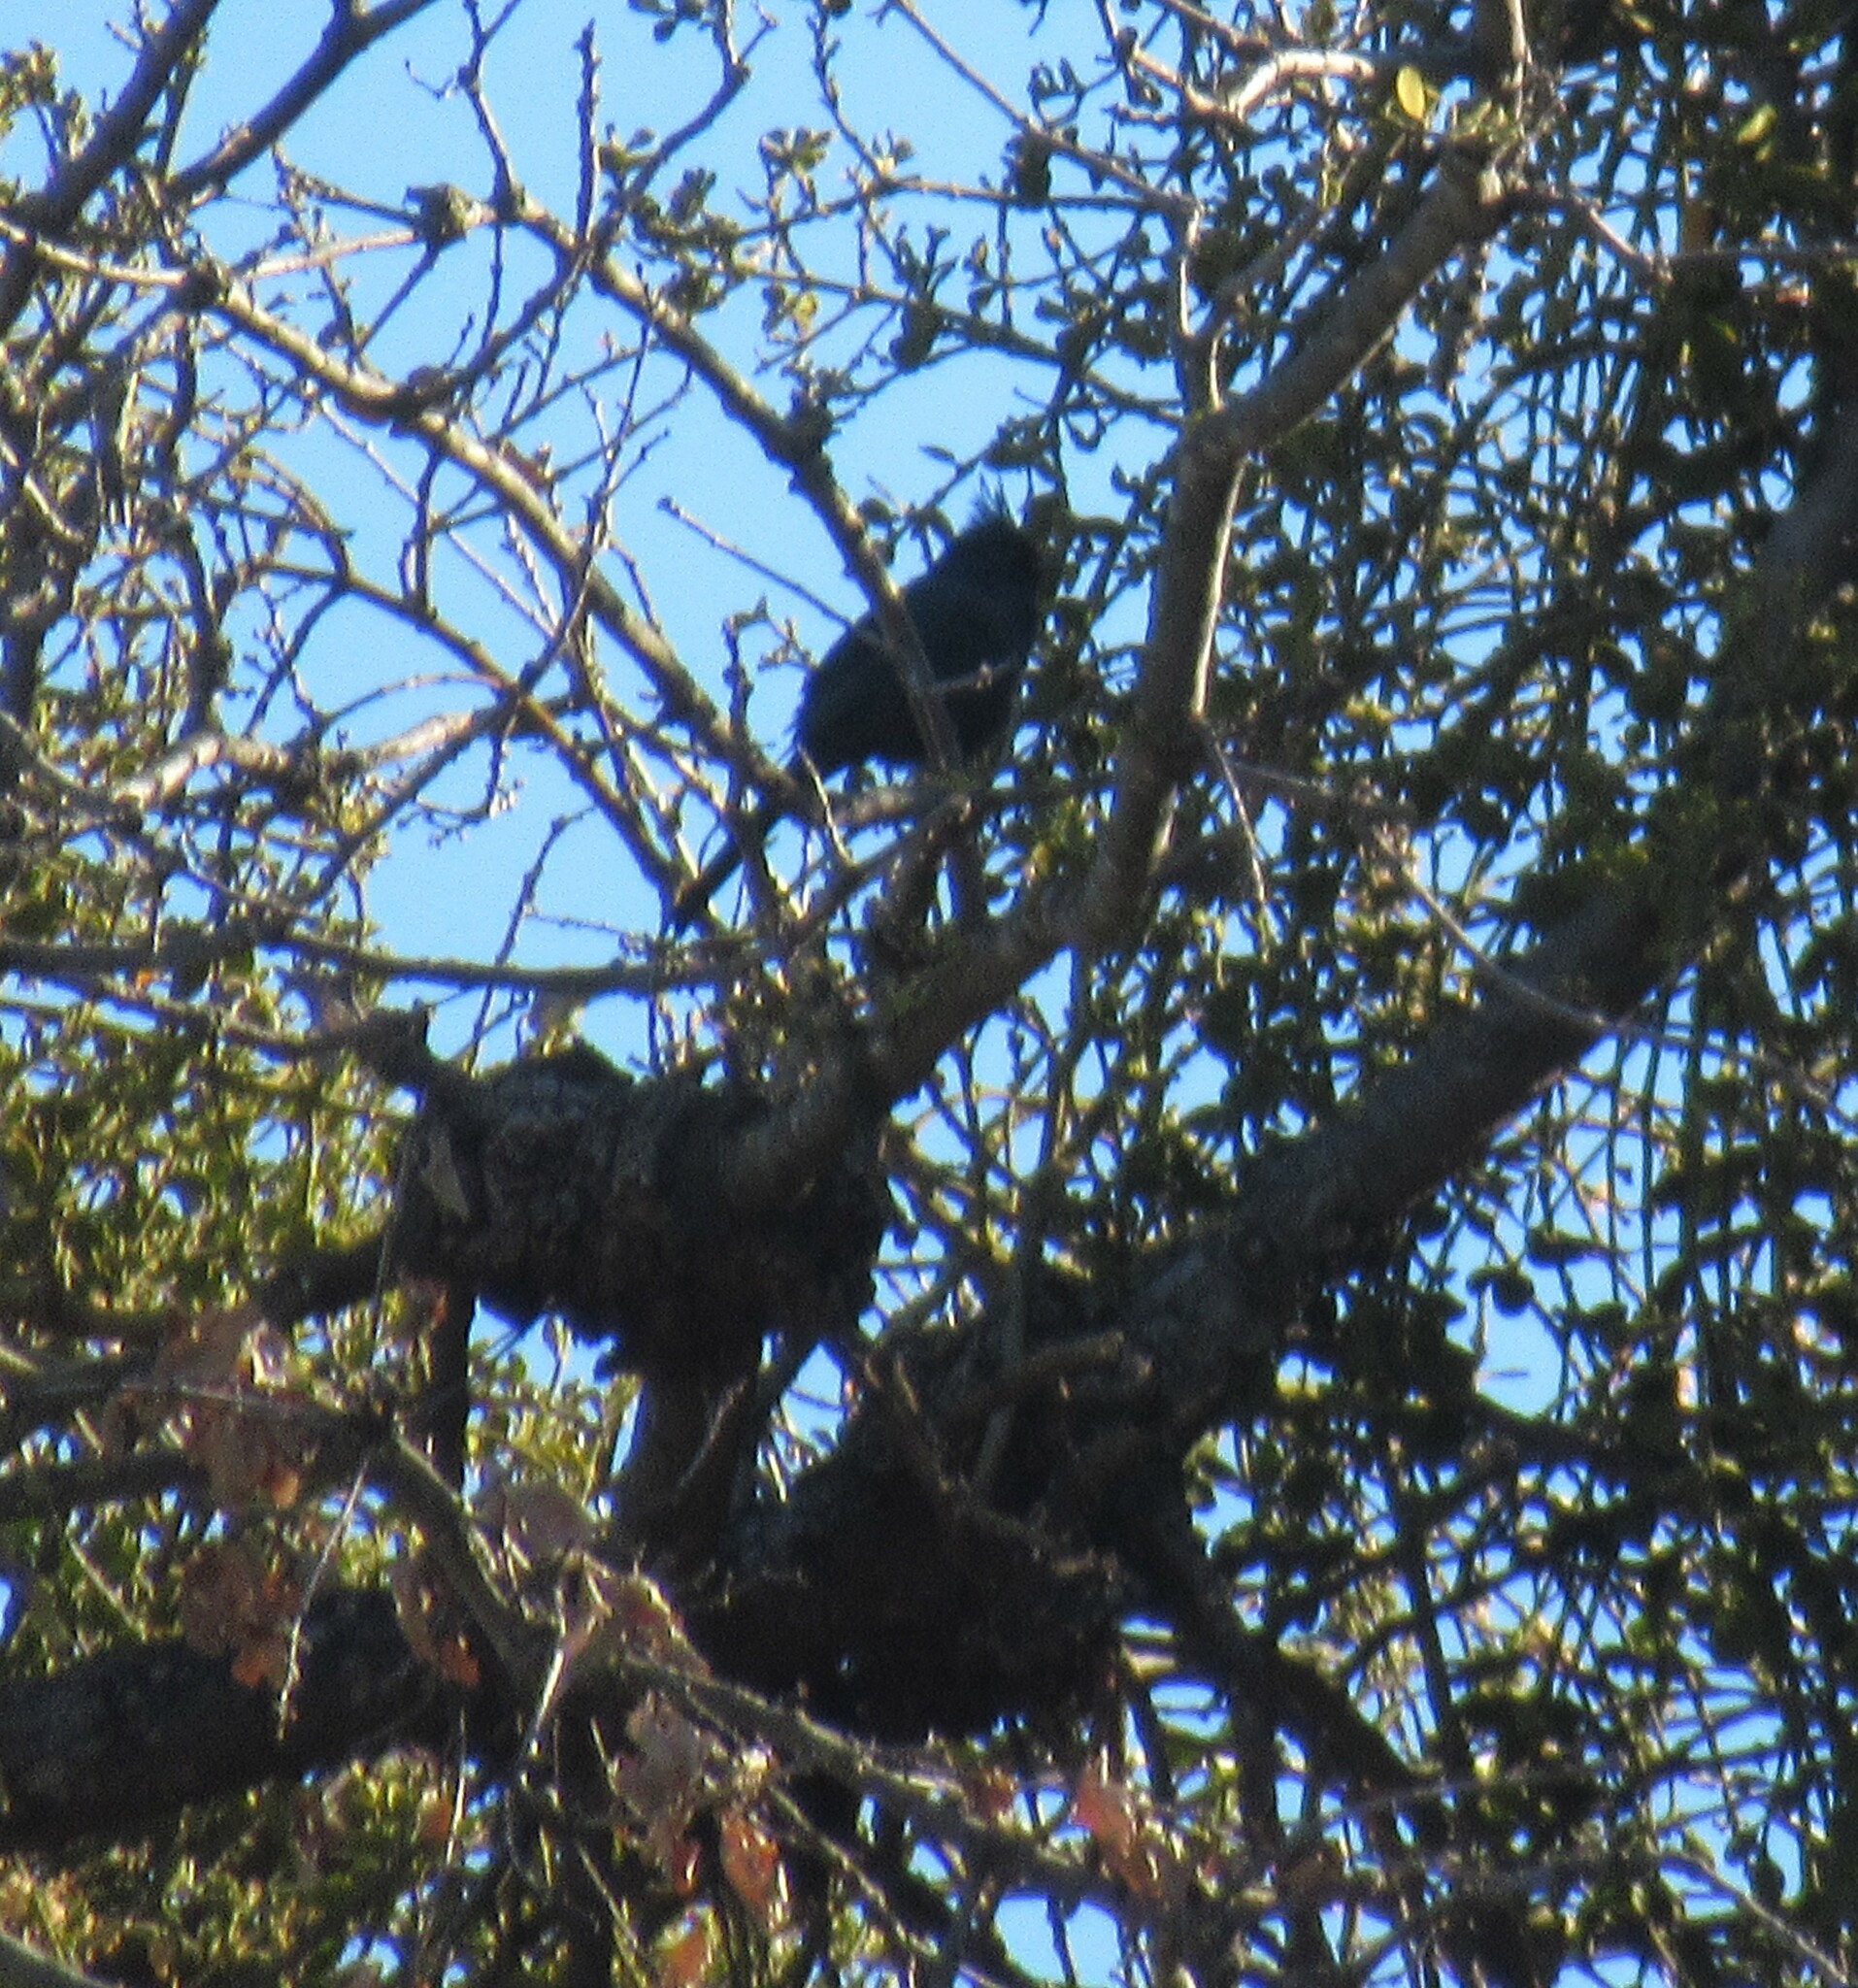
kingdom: Animalia
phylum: Chordata
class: Aves
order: Passeriformes
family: Ptilogonatidae
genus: Phainopepla
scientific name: Phainopepla nitens
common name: Phainopepla
